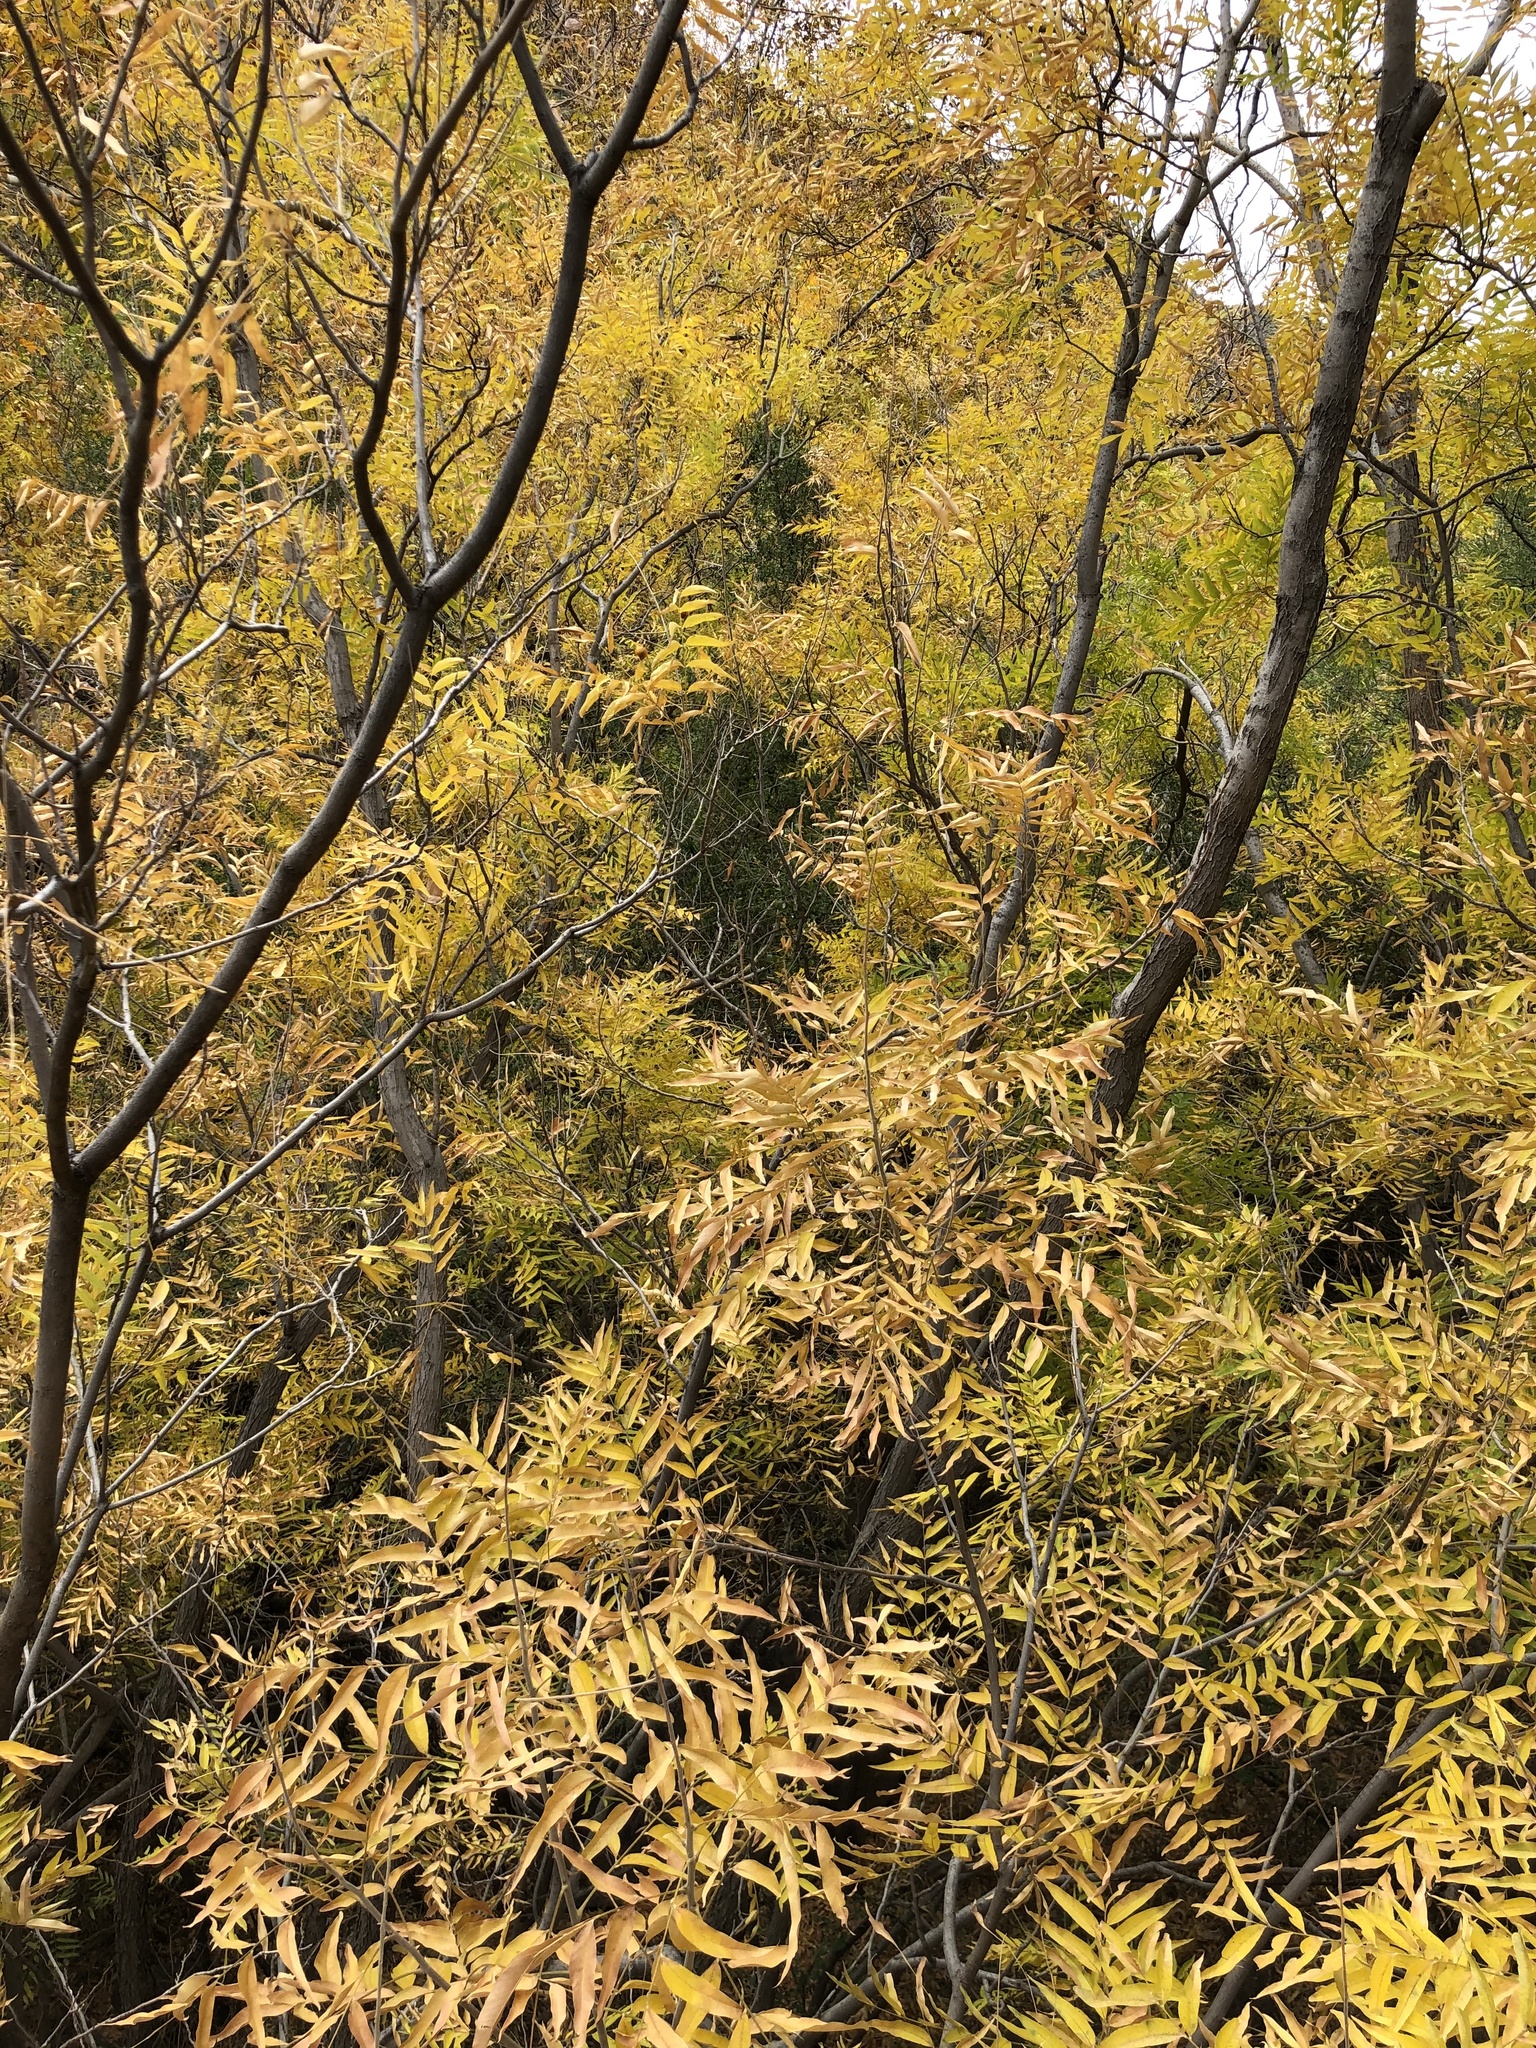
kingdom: Plantae
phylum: Tracheophyta
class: Magnoliopsida
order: Sapindales
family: Sapindaceae
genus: Sapindus
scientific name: Sapindus drummondii
